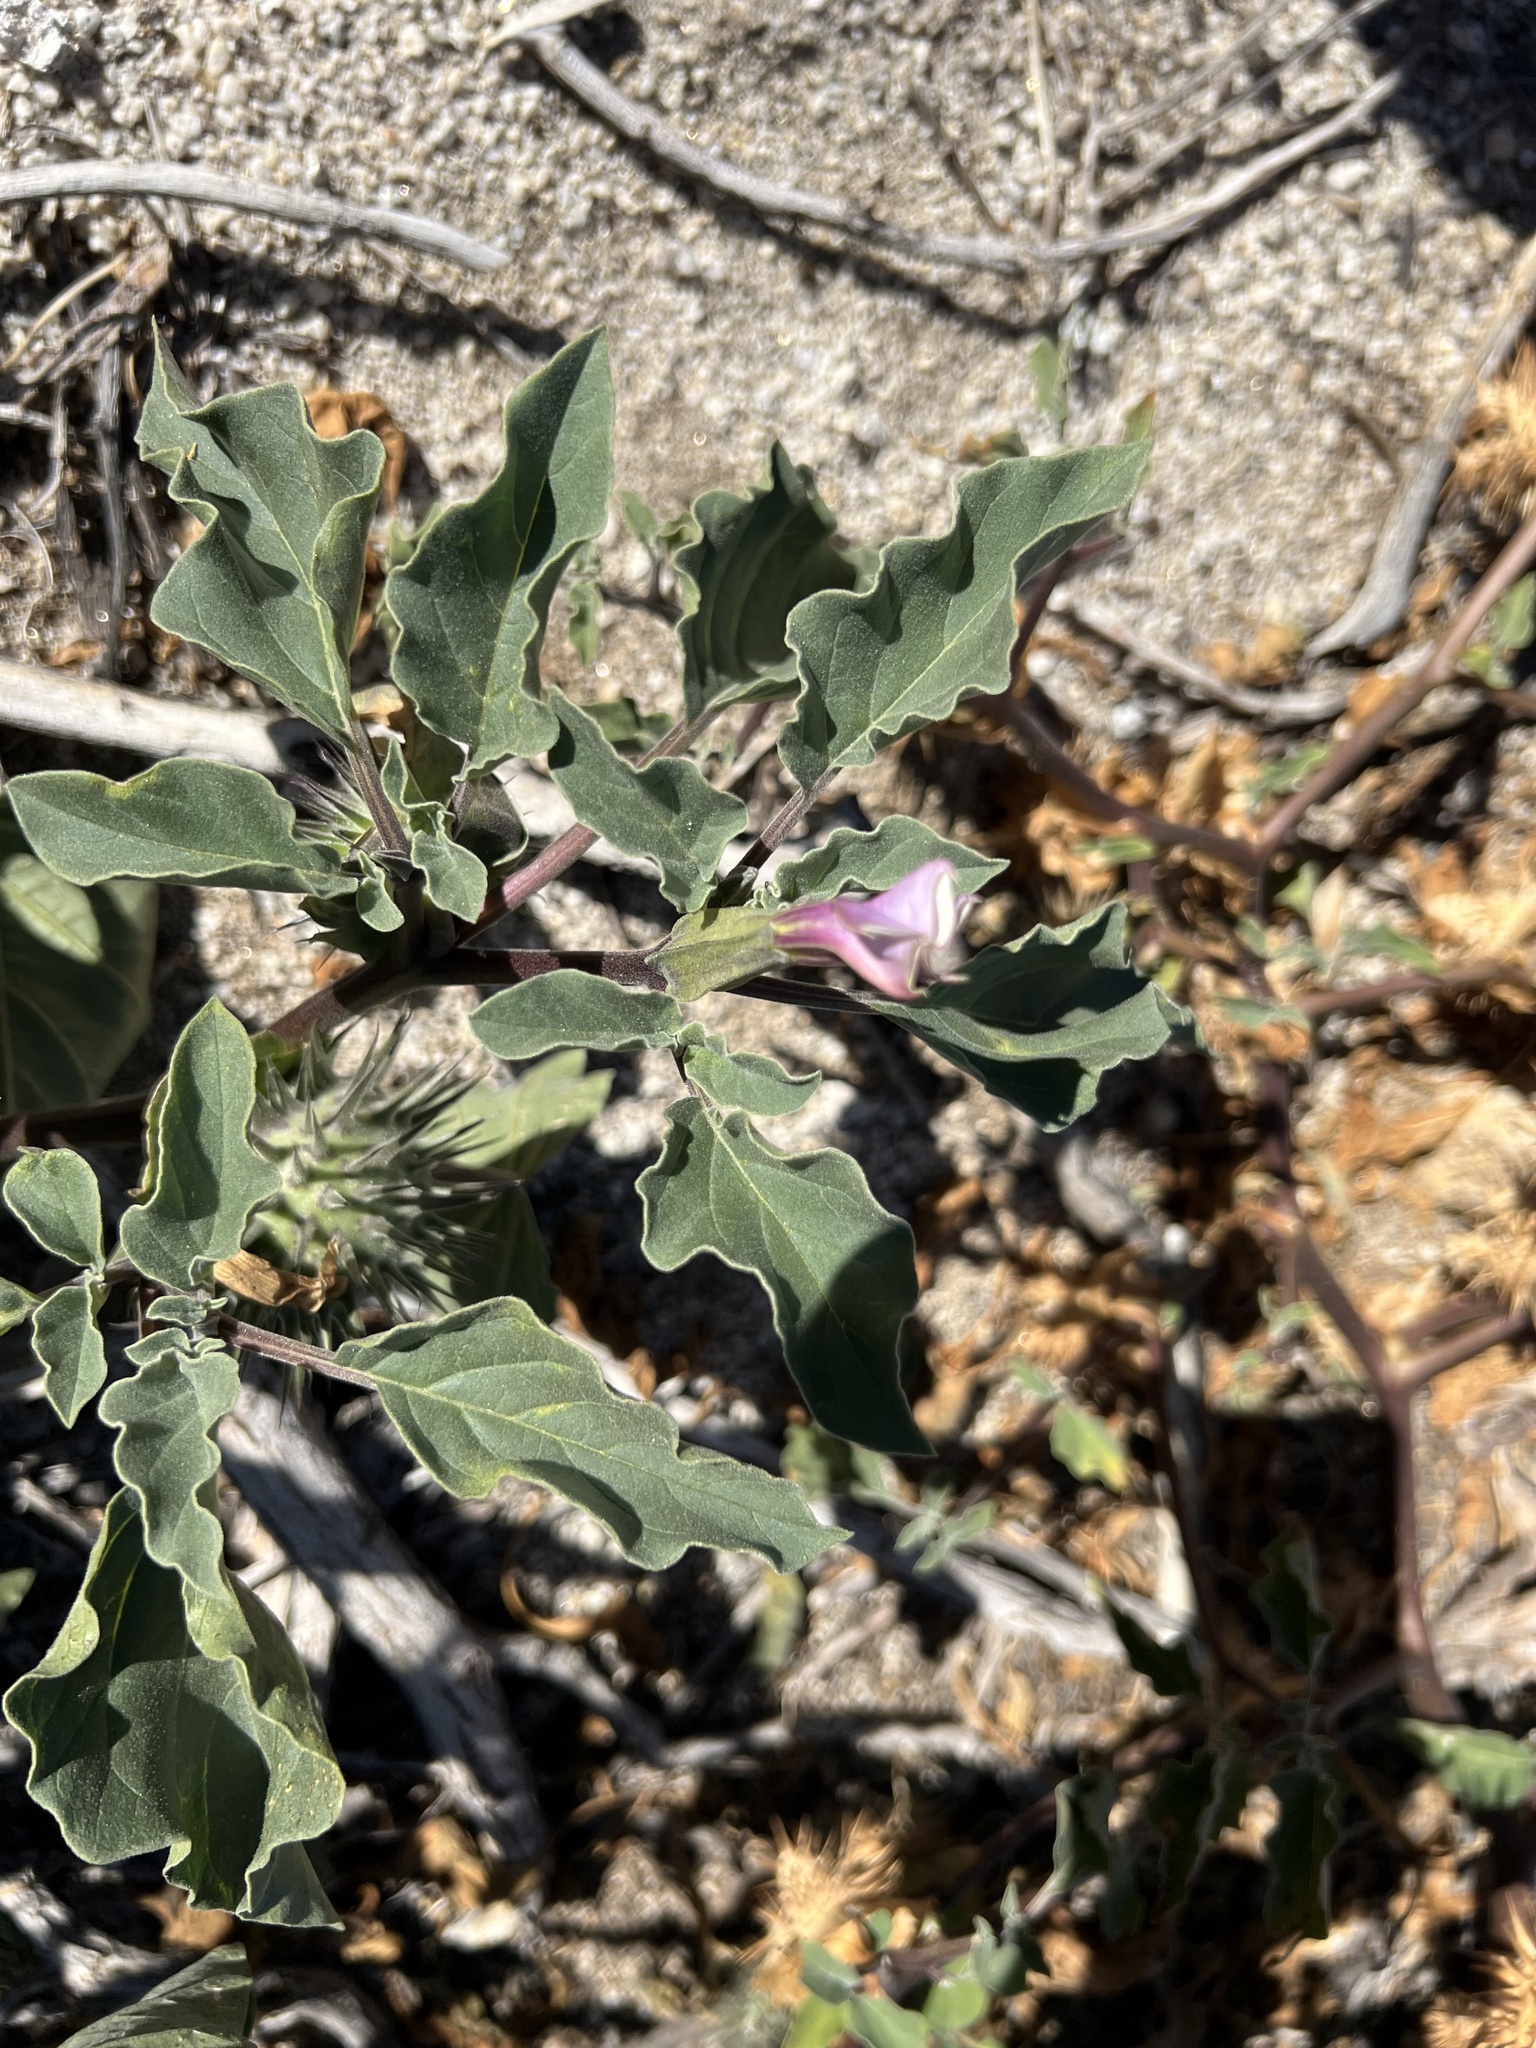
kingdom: Plantae
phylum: Tracheophyta
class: Magnoliopsida
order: Solanales
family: Solanaceae
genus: Datura
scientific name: Datura discolor
